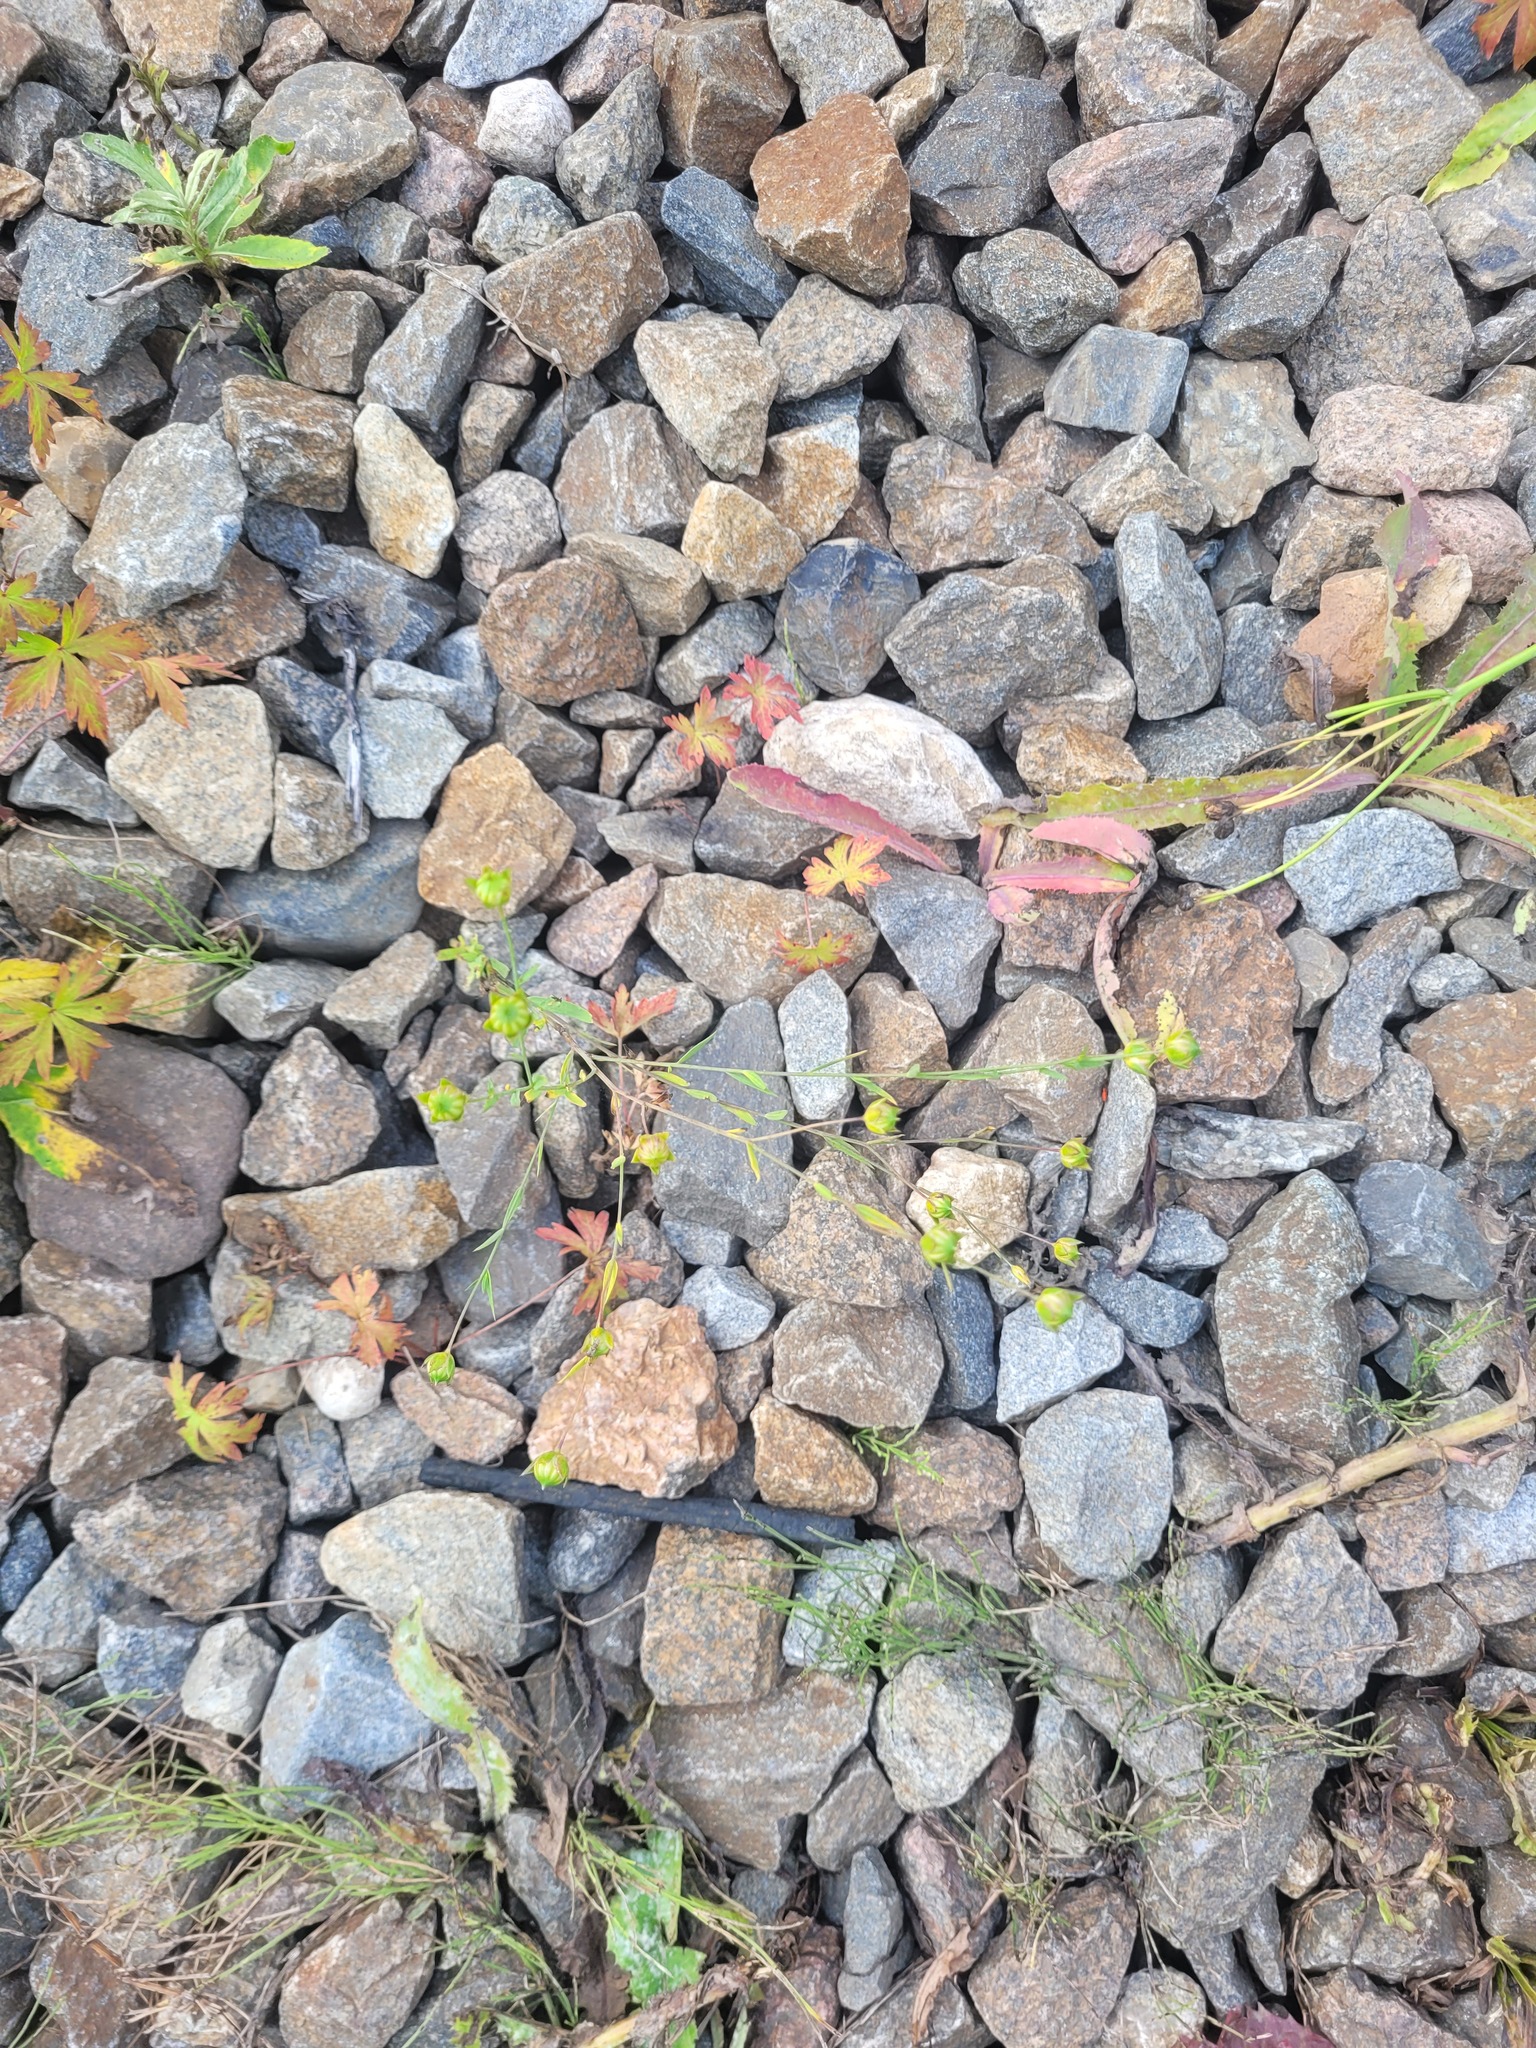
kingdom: Plantae
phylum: Tracheophyta
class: Magnoliopsida
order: Malpighiales
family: Linaceae
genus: Linum
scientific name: Linum usitatissimum
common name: Flax
